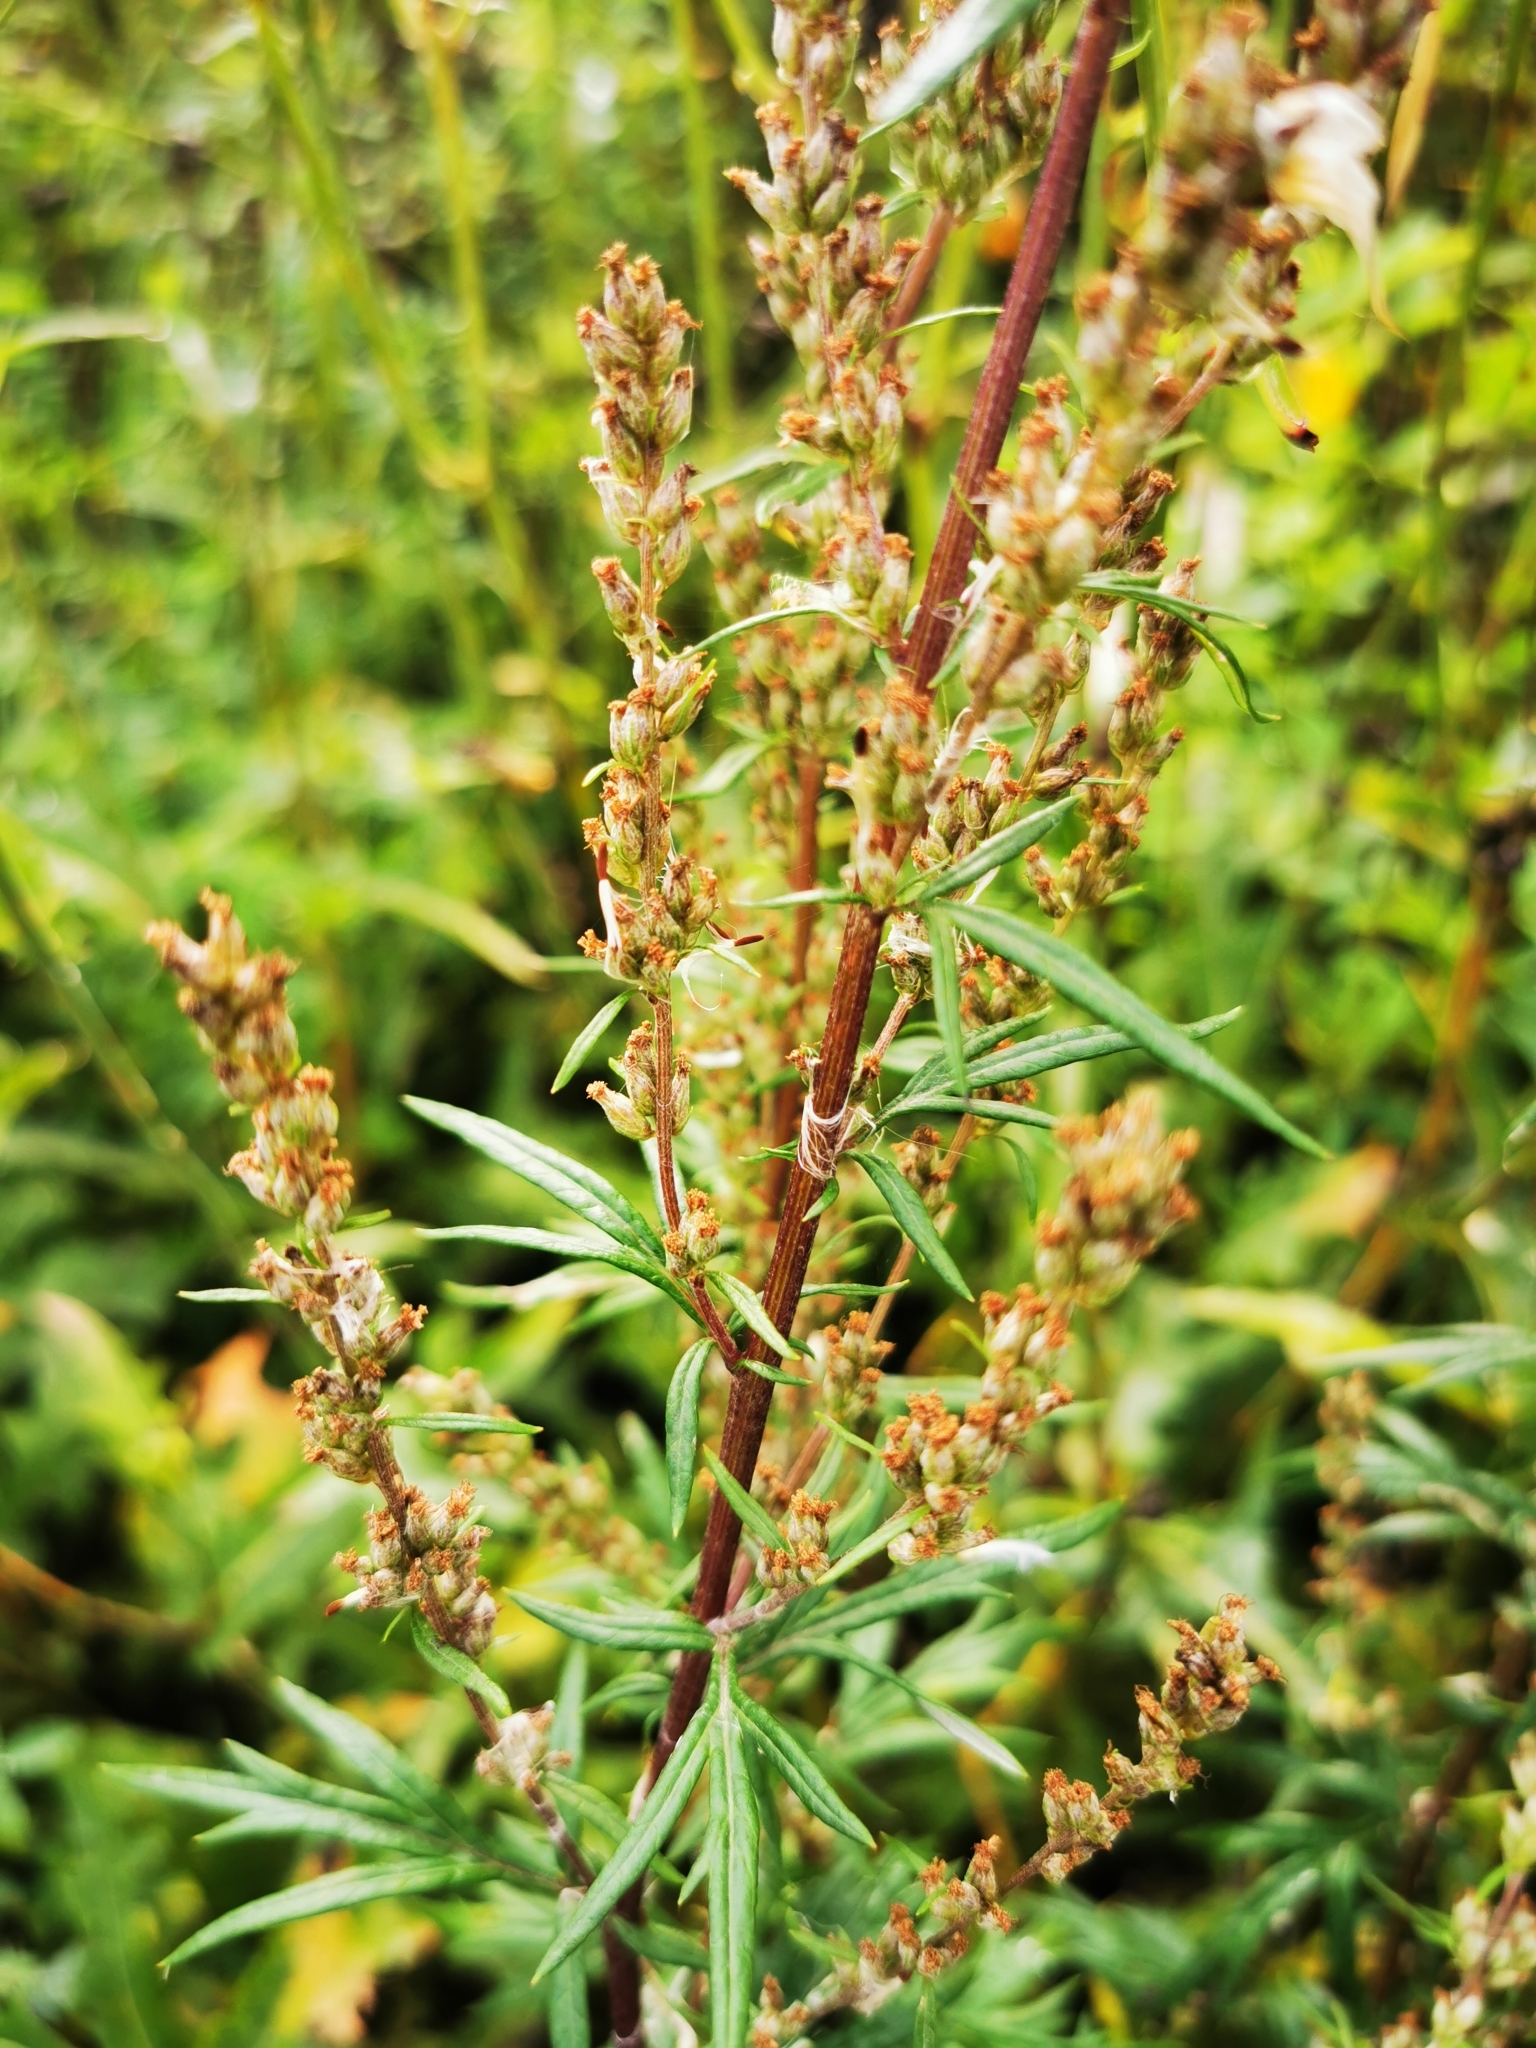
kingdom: Plantae
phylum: Tracheophyta
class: Magnoliopsida
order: Asterales
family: Asteraceae
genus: Artemisia
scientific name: Artemisia vulgaris
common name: Mugwort
